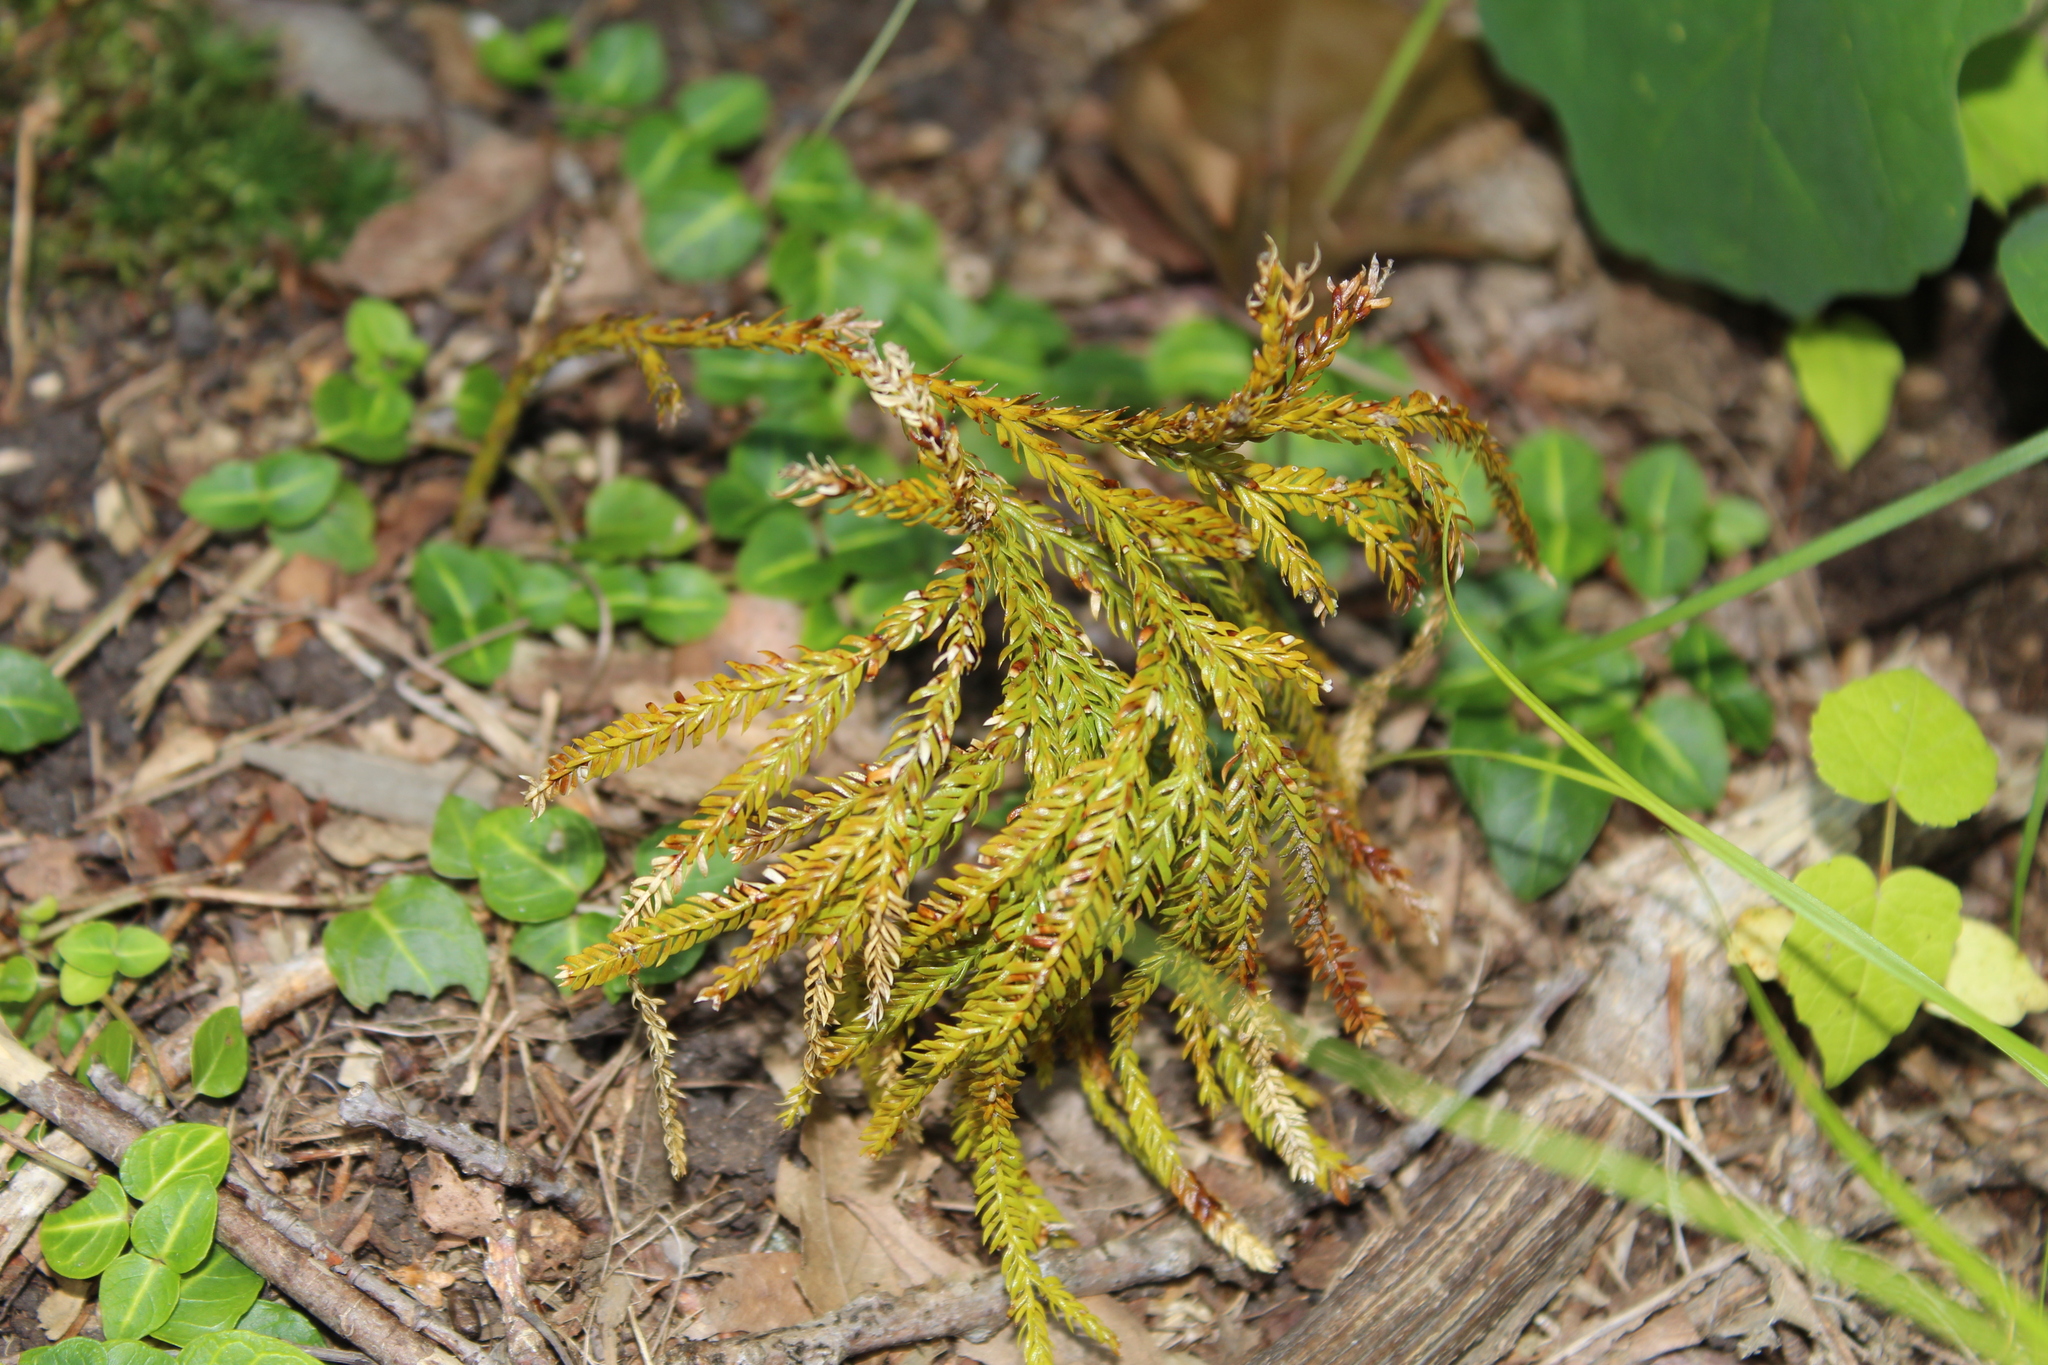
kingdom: Plantae
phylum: Tracheophyta
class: Lycopodiopsida
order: Lycopodiales
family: Lycopodiaceae
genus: Dendrolycopodium
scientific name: Dendrolycopodium obscurum
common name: Common ground-pine
